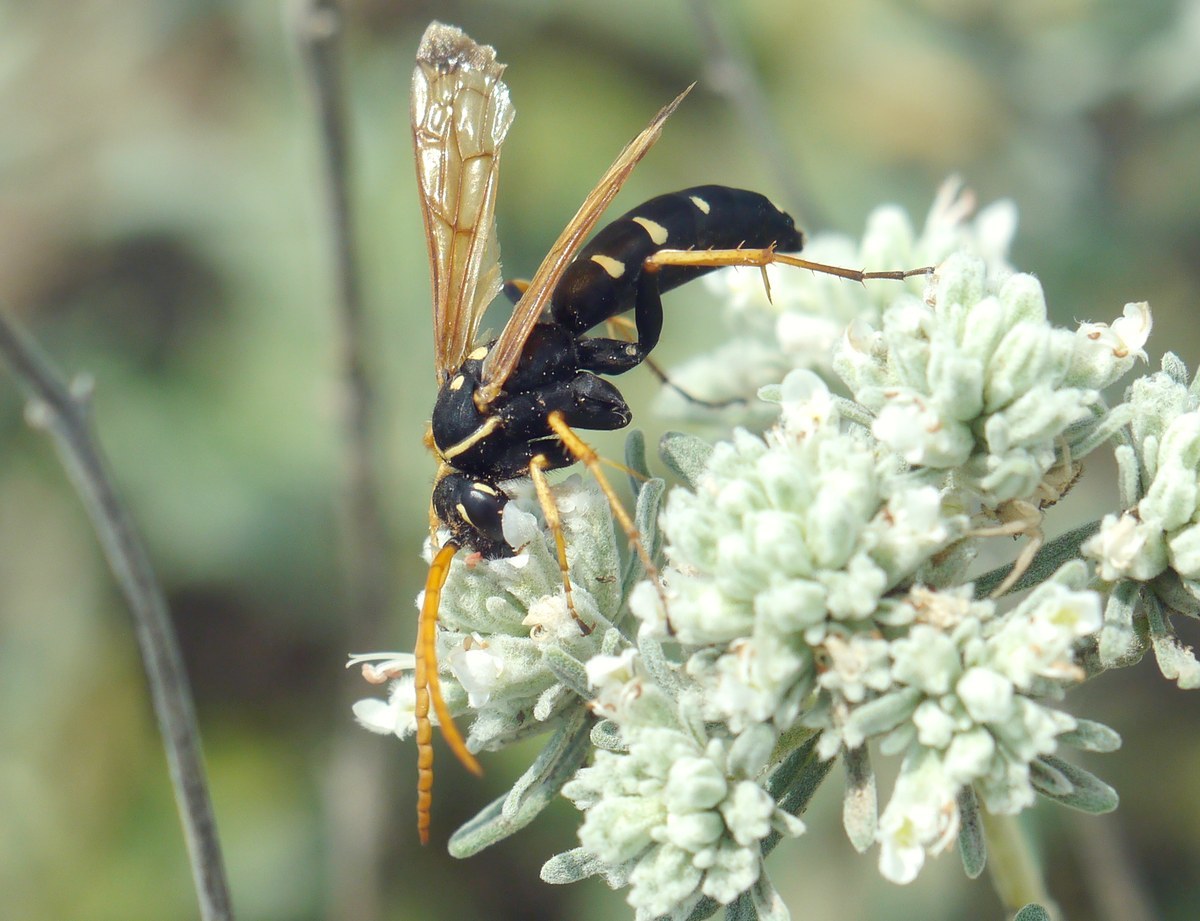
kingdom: Animalia
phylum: Arthropoda
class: Insecta
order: Hymenoptera
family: Pompilidae
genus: Parabatozonus
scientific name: Parabatozonus lacerticida
